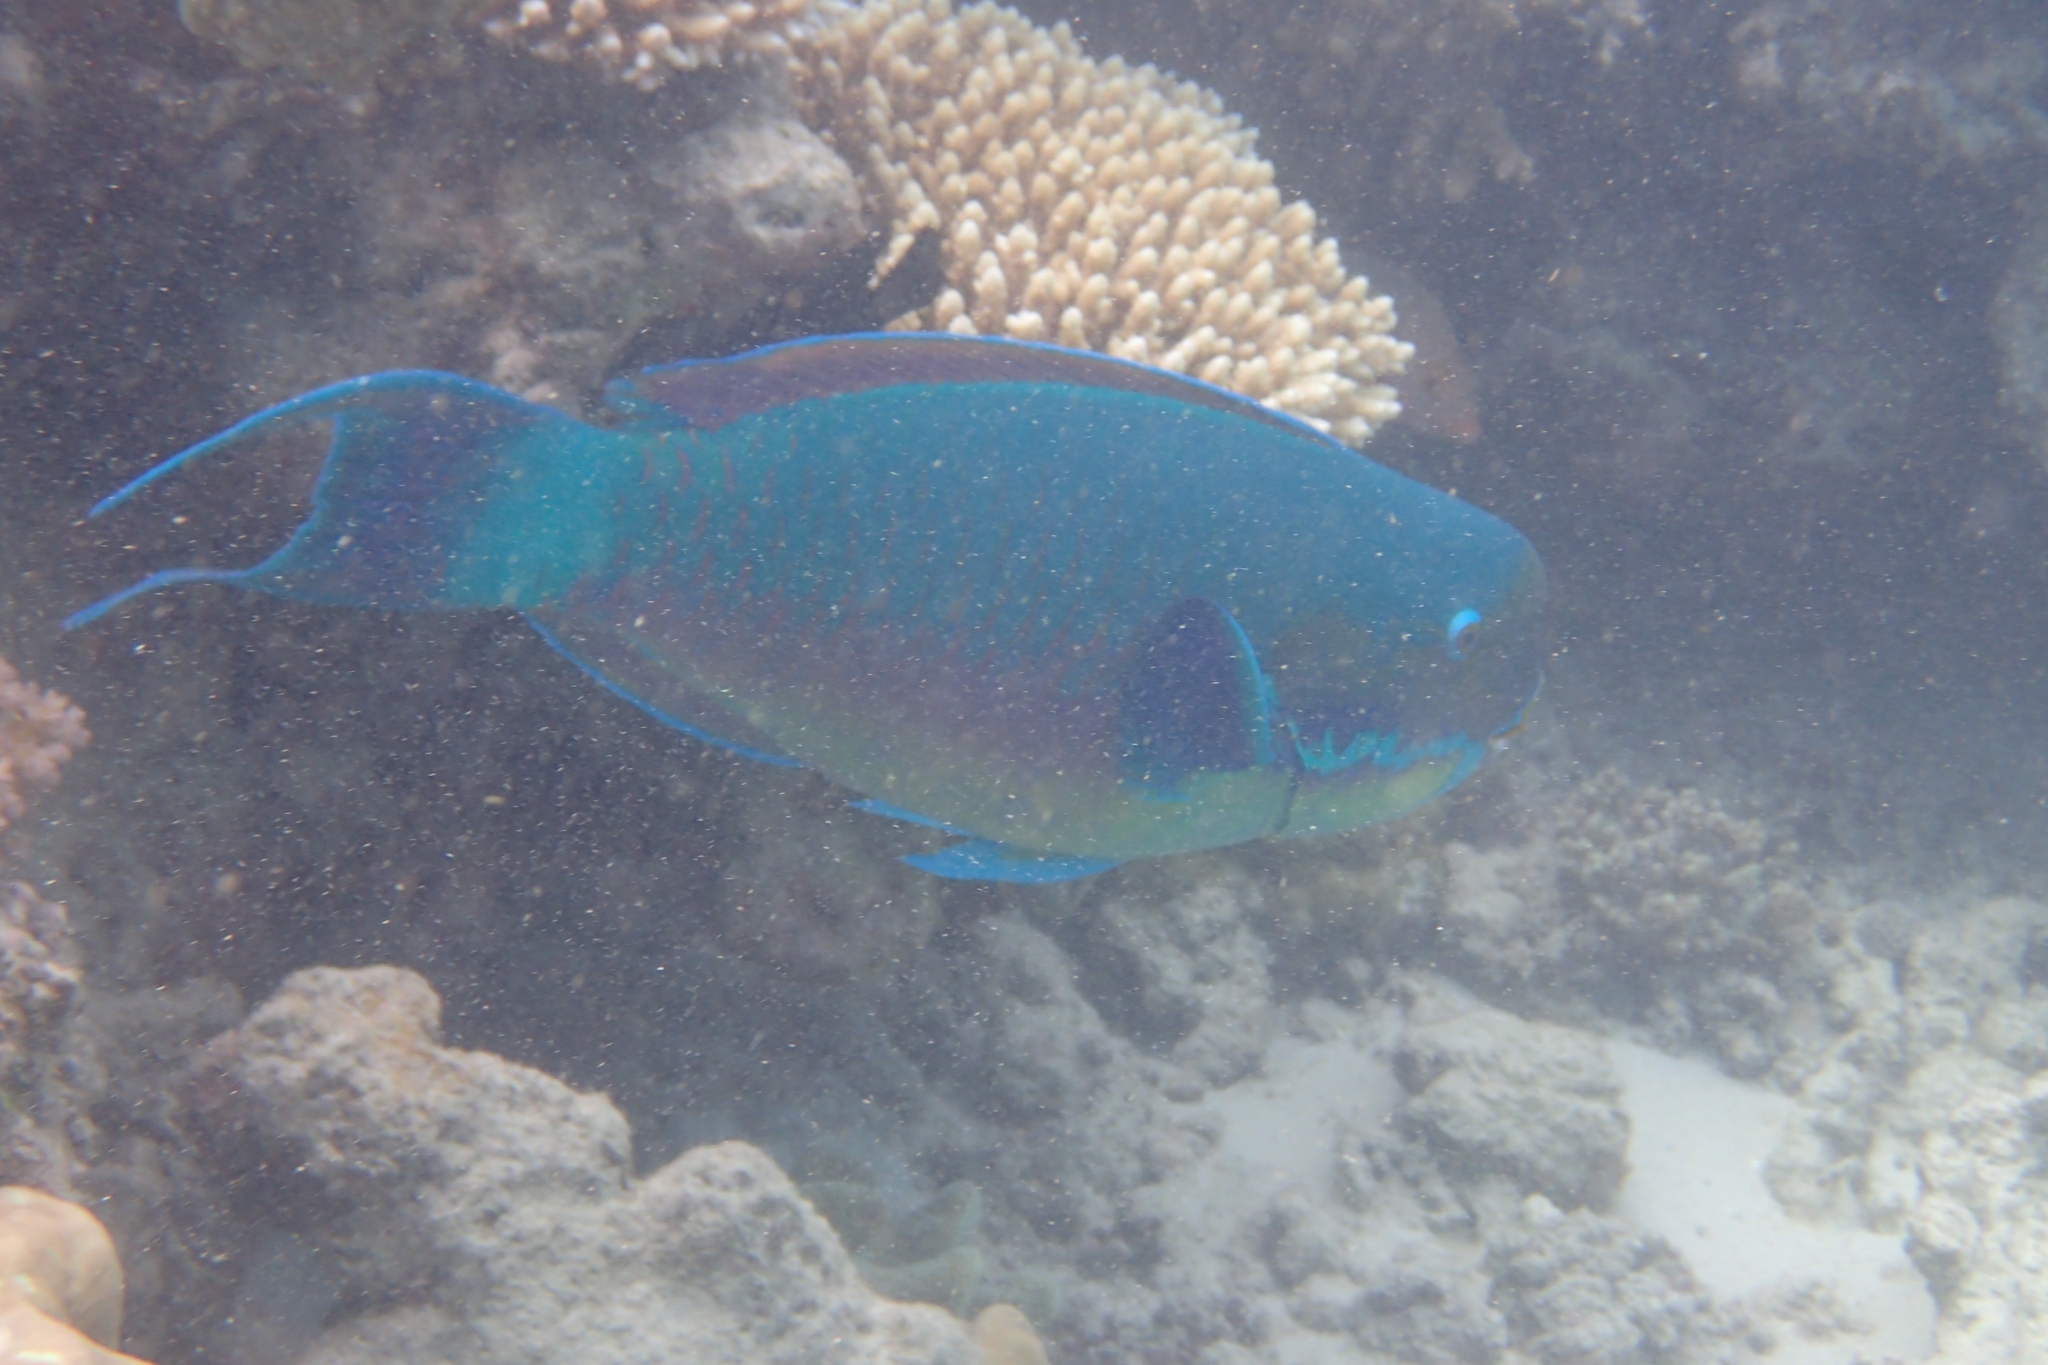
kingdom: Animalia
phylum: Chordata
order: Perciformes
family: Scaridae
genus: Chlorurus
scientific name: Chlorurus microrhinos
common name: Steephead parrotfish
